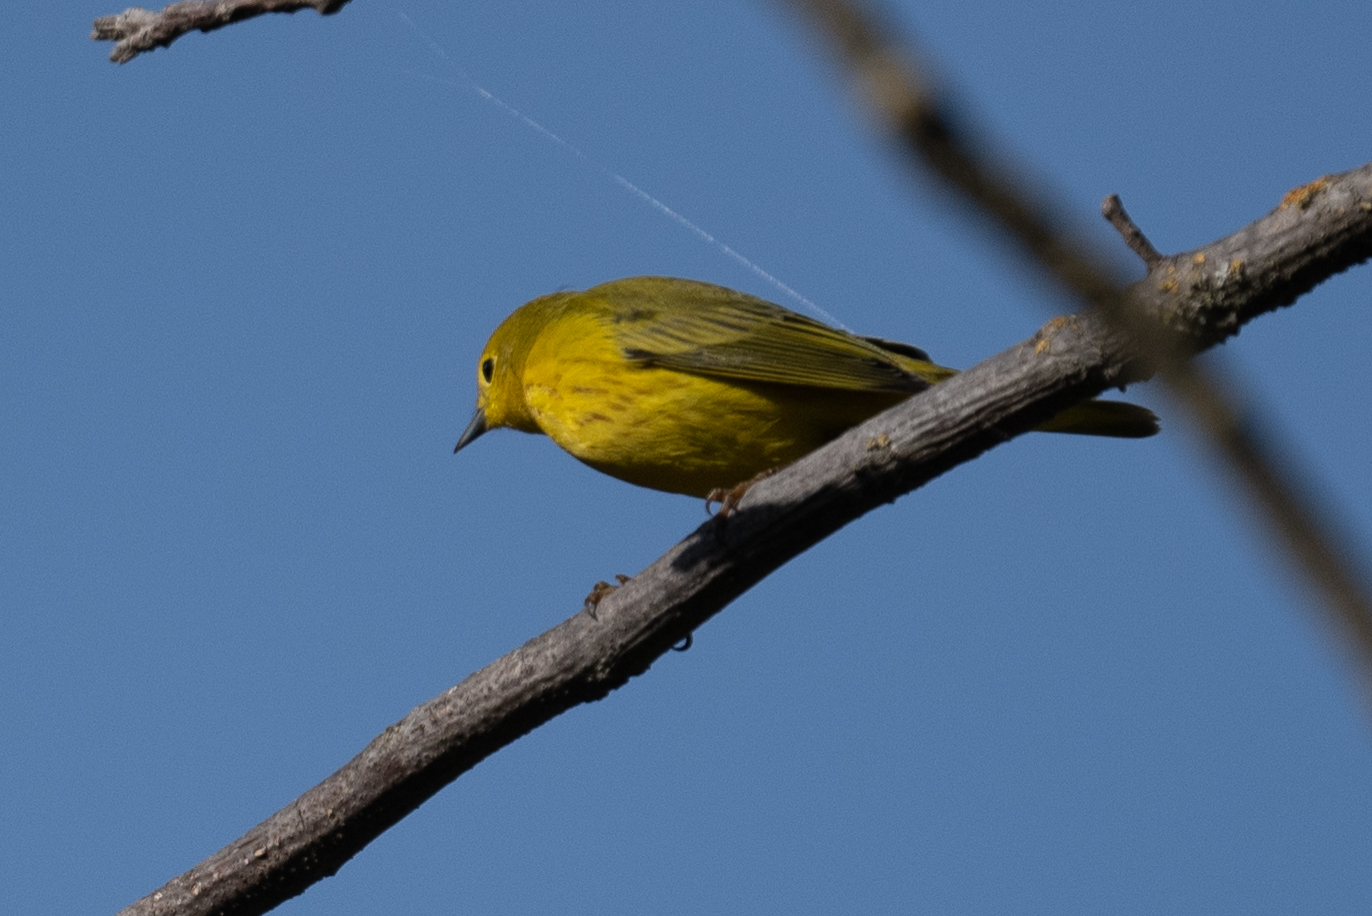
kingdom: Animalia
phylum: Chordata
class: Aves
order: Passeriformes
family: Parulidae
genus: Setophaga
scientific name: Setophaga petechia
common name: Yellow warbler
